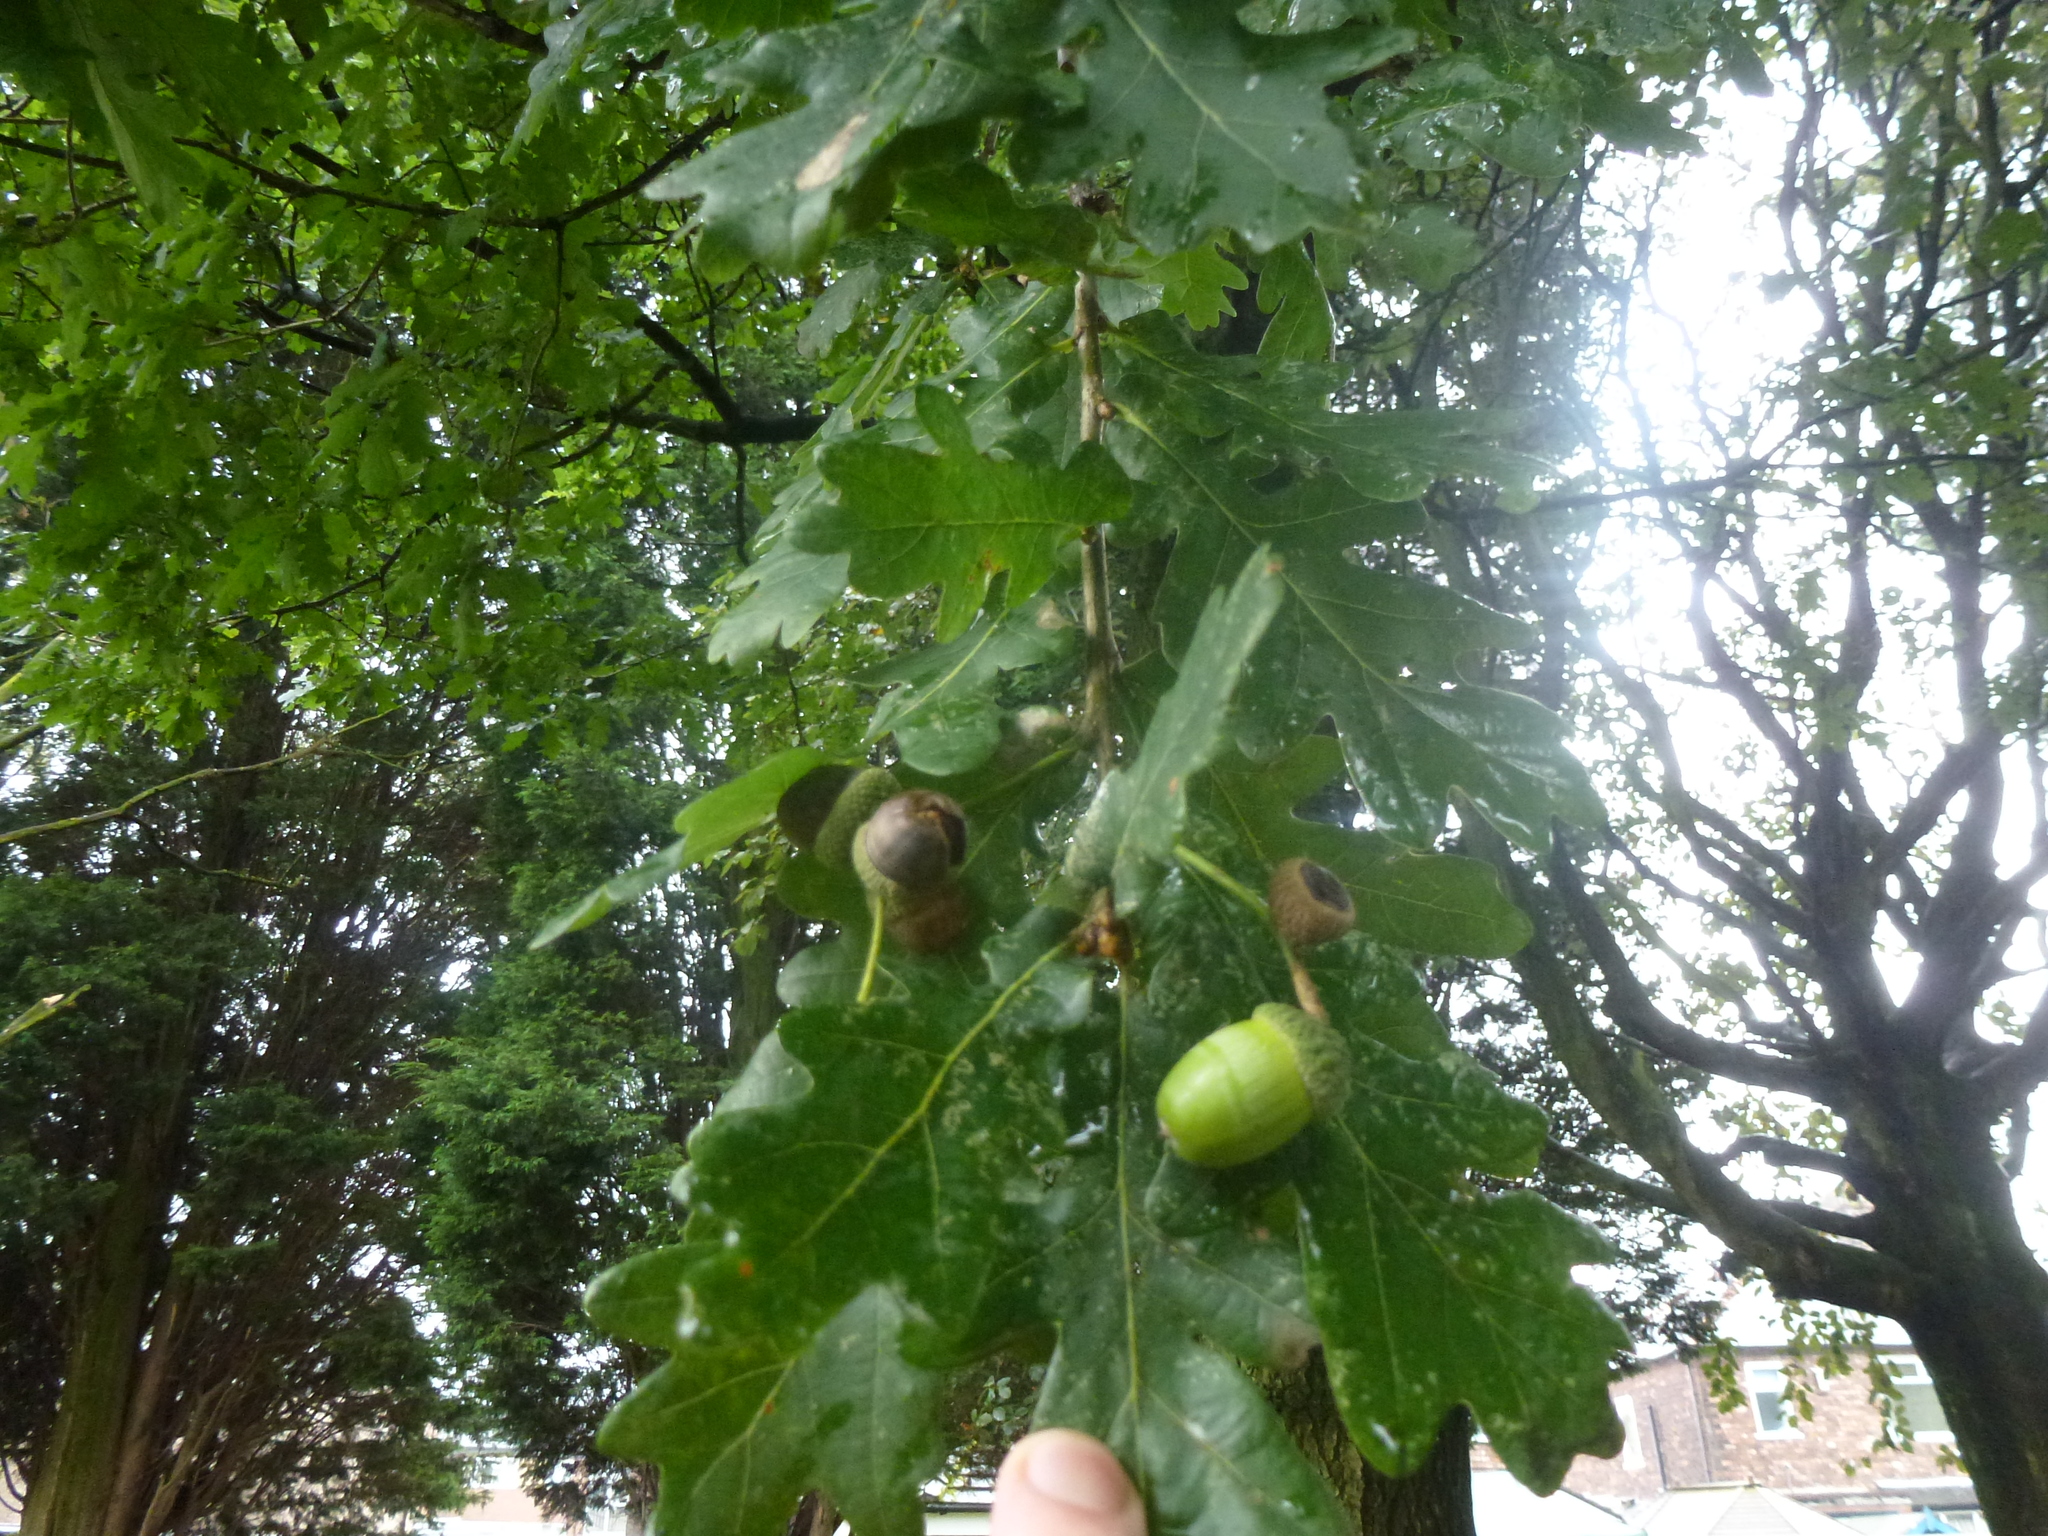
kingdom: Plantae
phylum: Tracheophyta
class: Magnoliopsida
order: Fagales
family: Fagaceae
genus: Quercus
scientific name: Quercus robur
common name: Pedunculate oak
